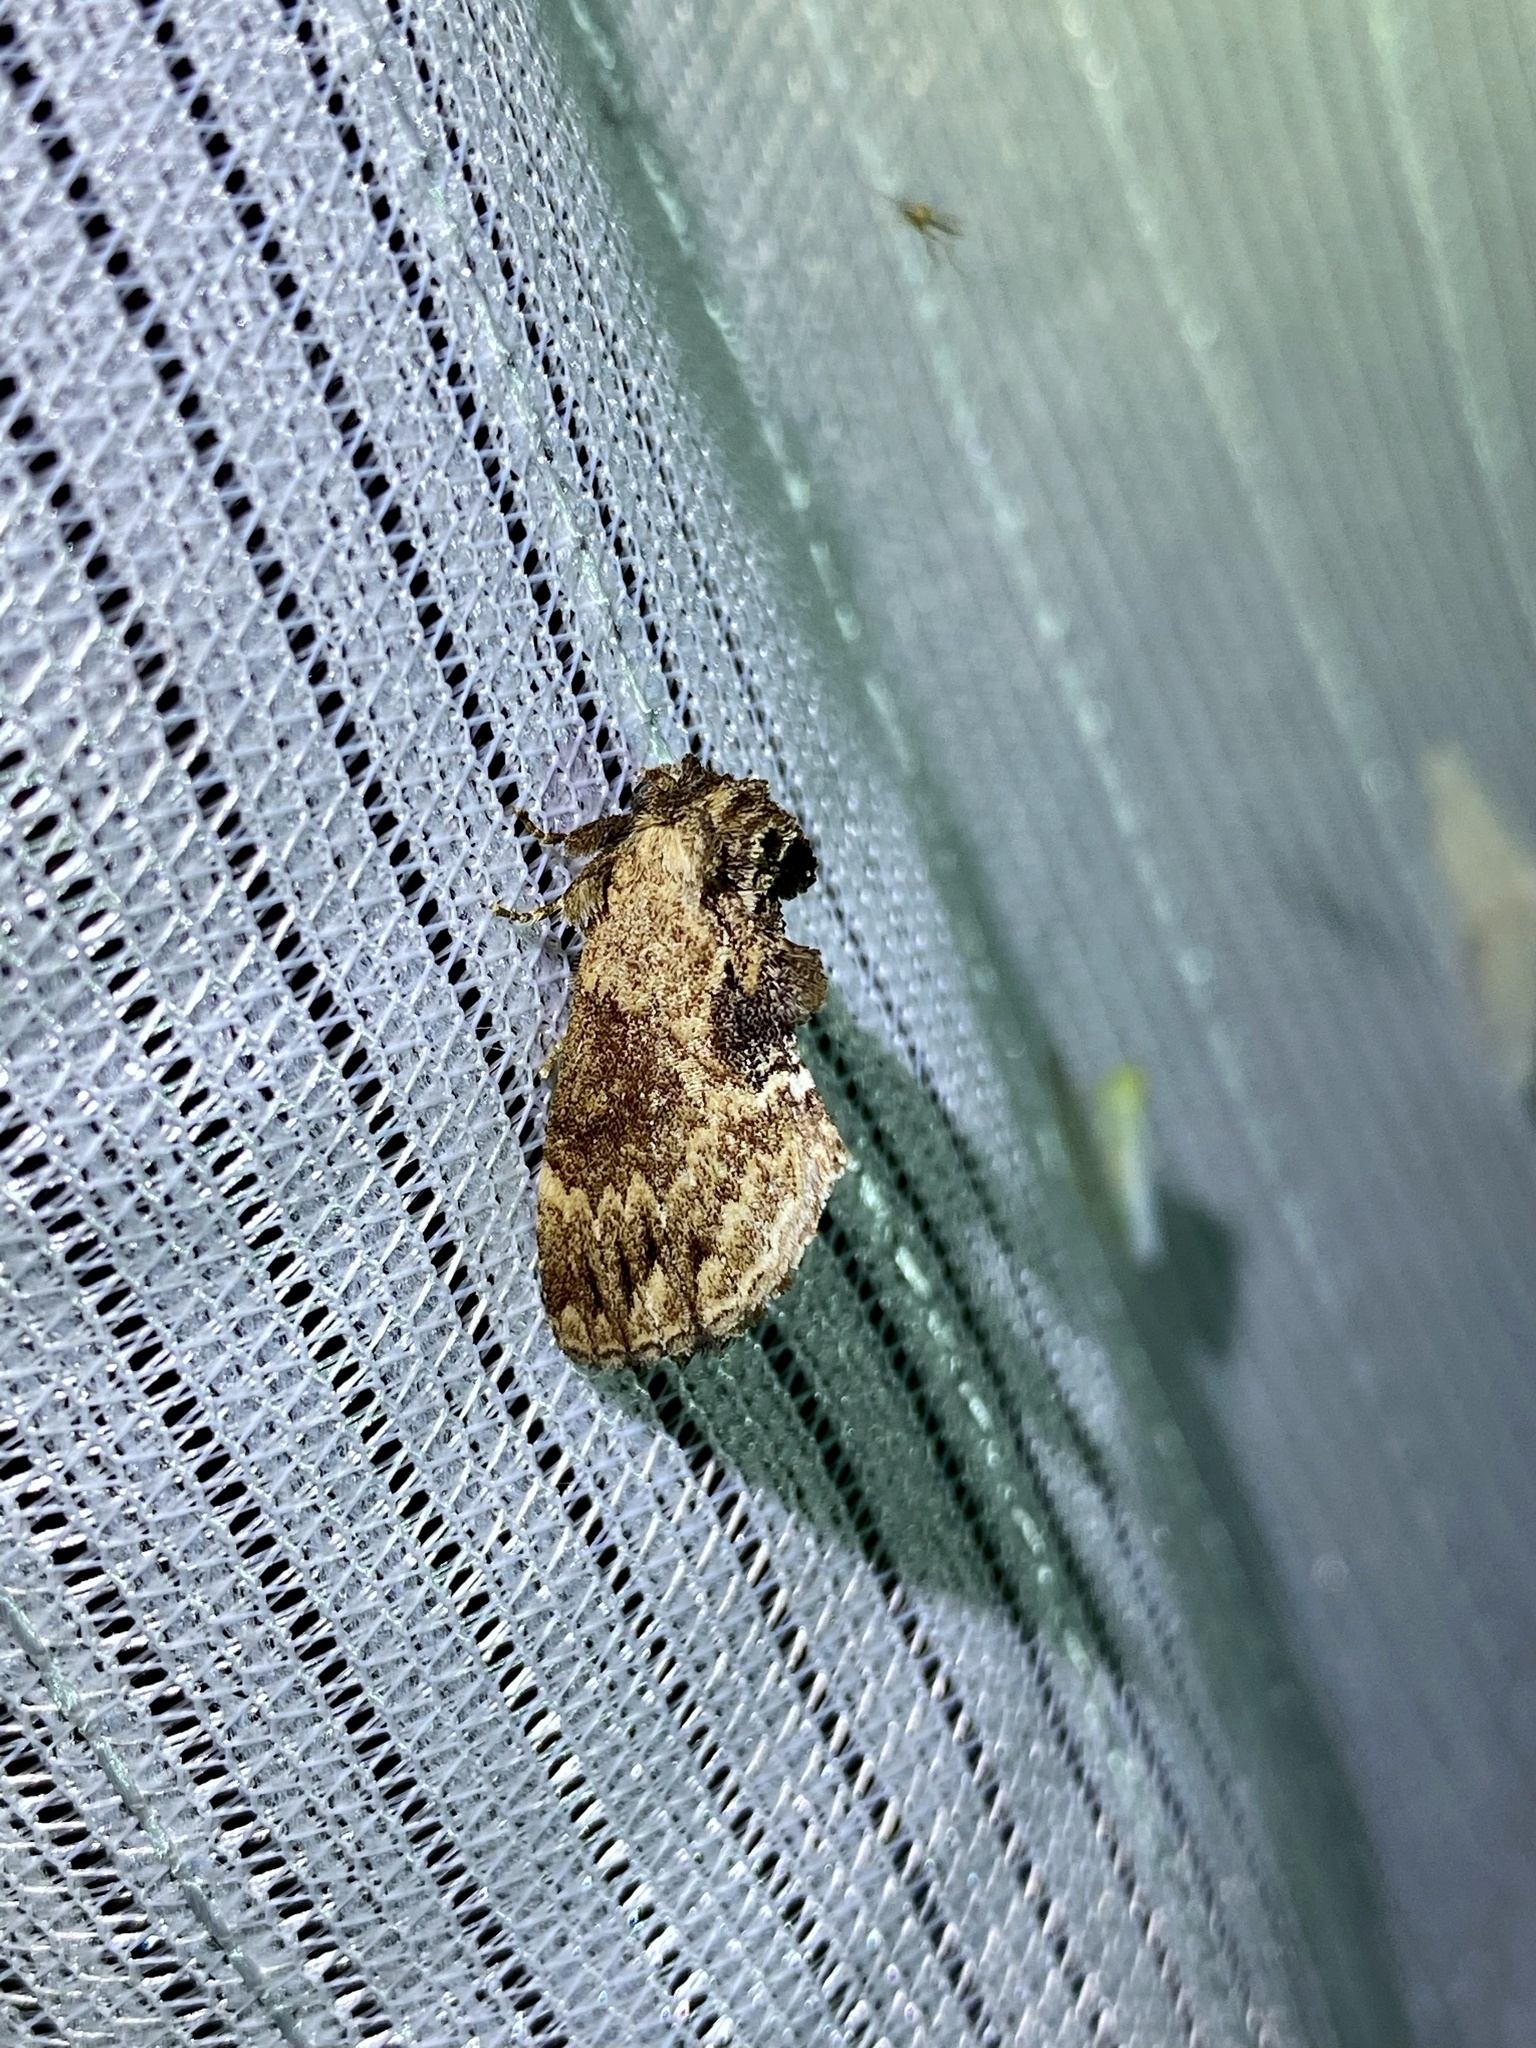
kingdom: Animalia
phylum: Arthropoda
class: Insecta
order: Lepidoptera
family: Notodontidae
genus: Lophontosia
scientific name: Lophontosia
